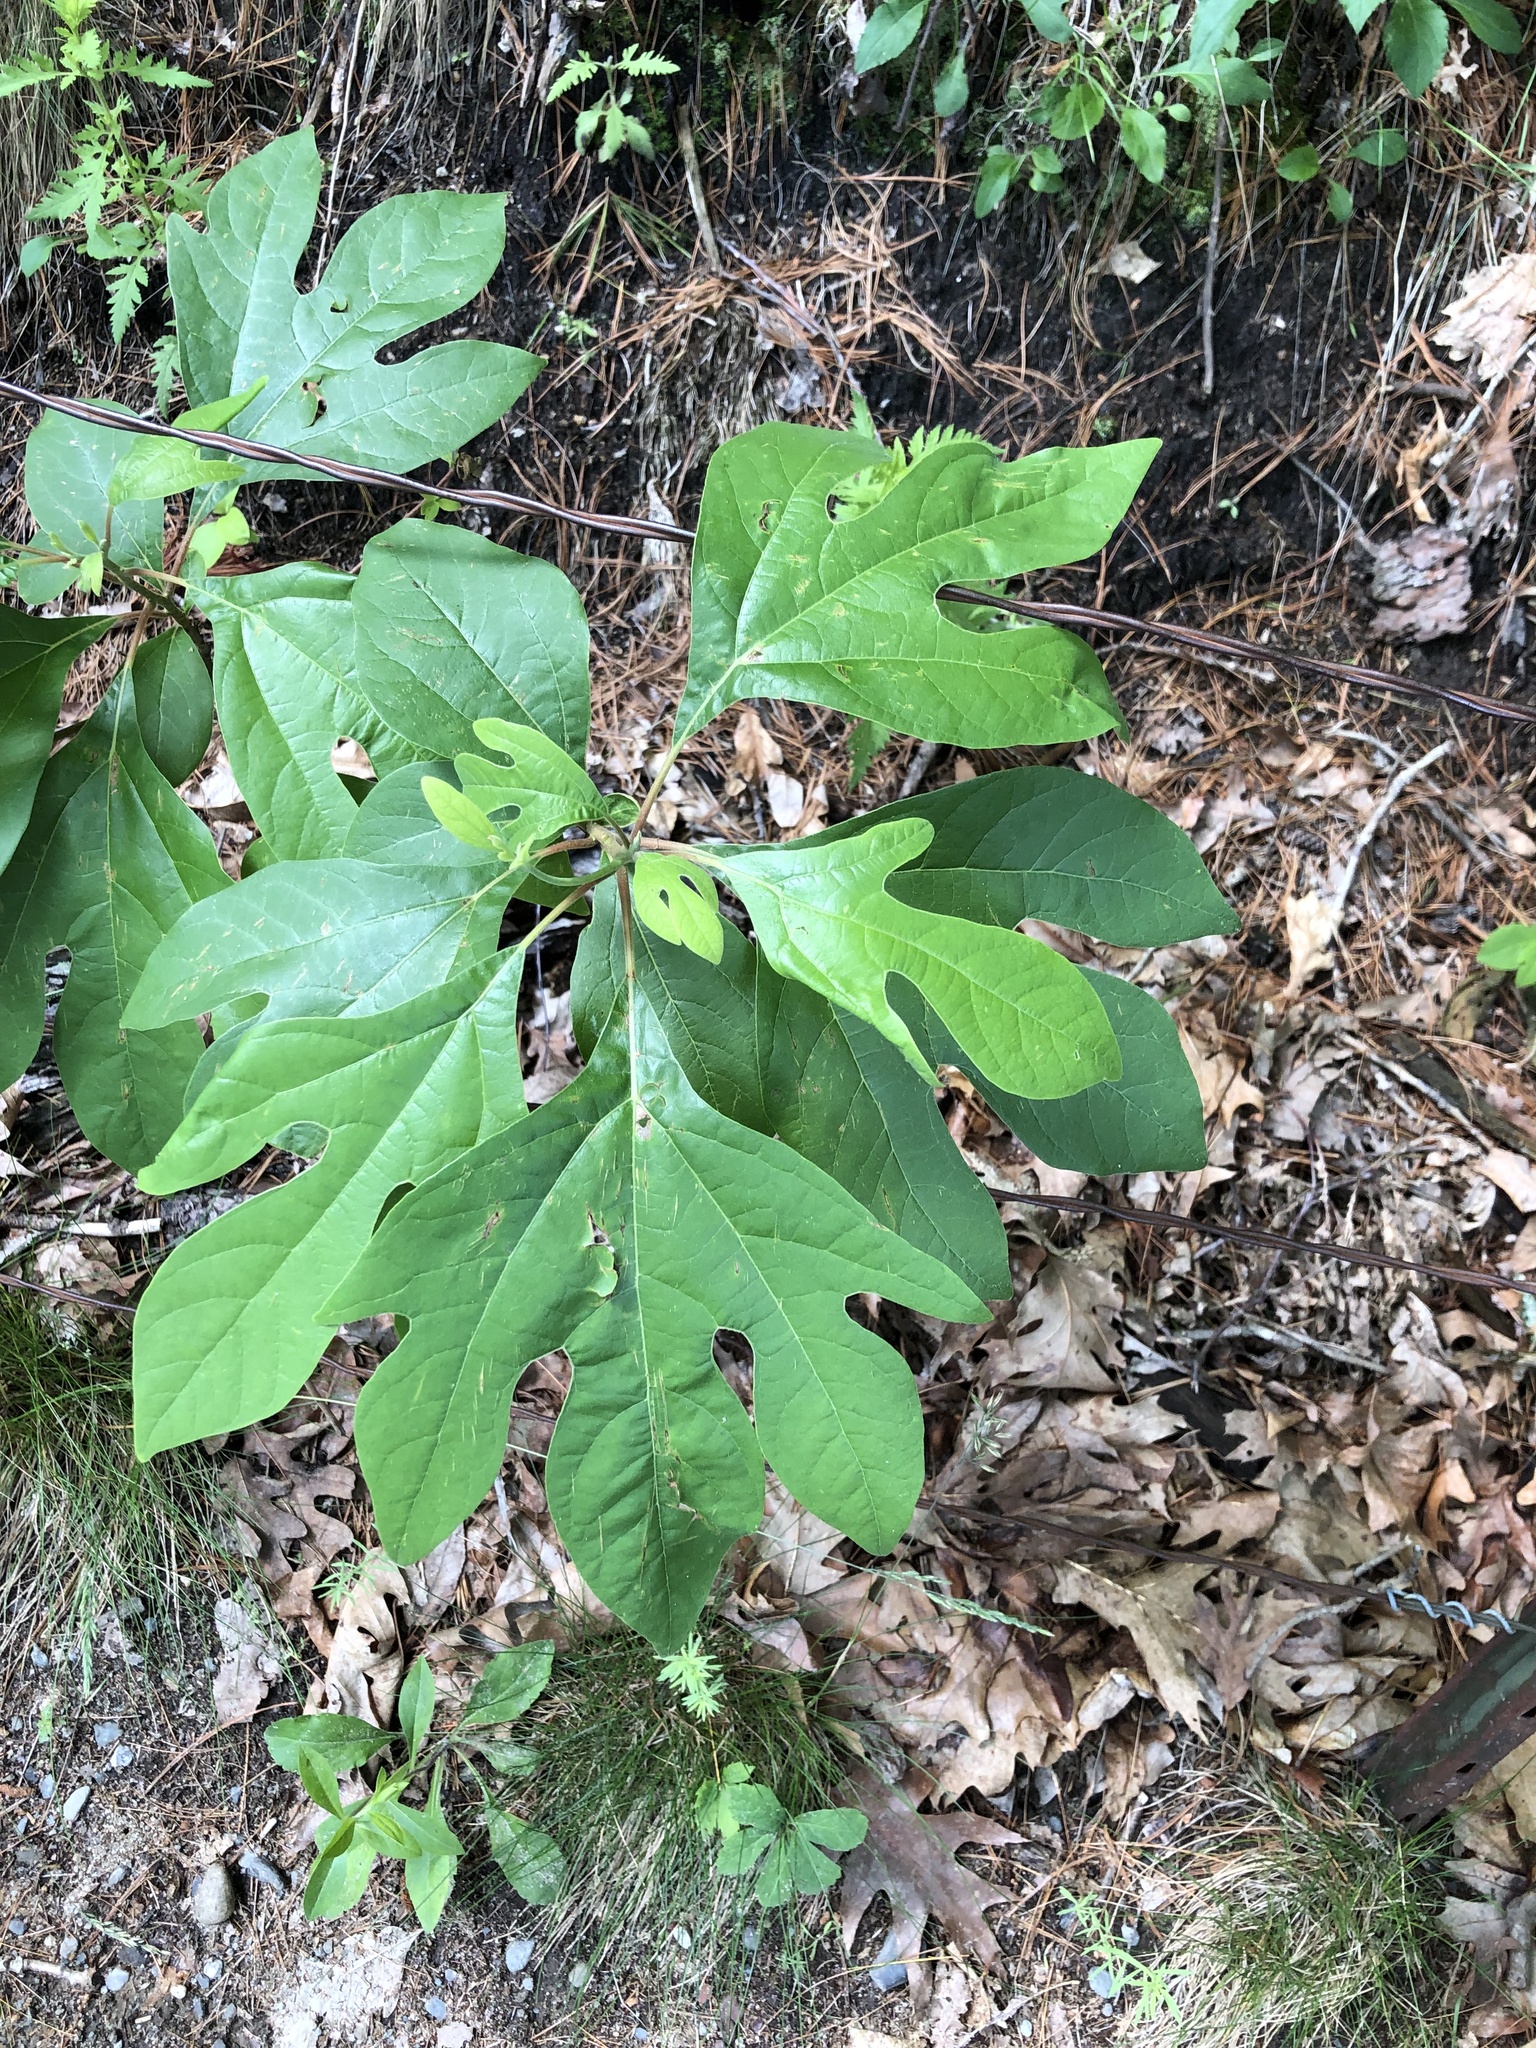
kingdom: Plantae
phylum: Tracheophyta
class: Magnoliopsida
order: Laurales
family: Lauraceae
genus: Sassafras
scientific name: Sassafras albidum
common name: Sassafras
